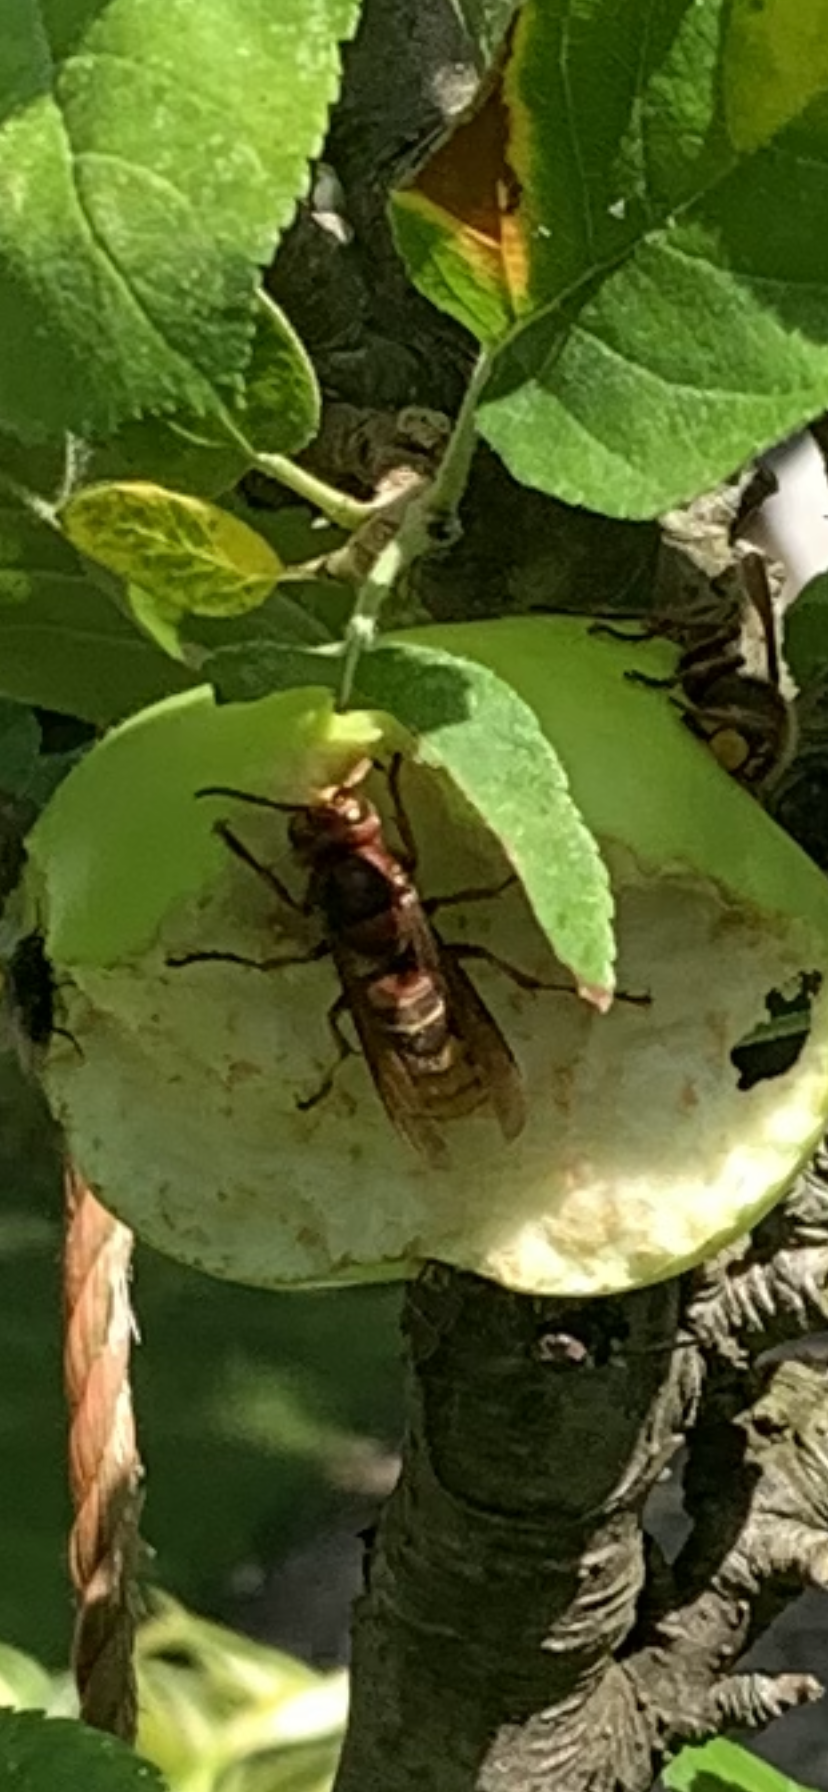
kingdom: Animalia
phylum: Arthropoda
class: Insecta
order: Hymenoptera
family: Vespidae
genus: Vespa
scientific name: Vespa crabro
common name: Hornet
